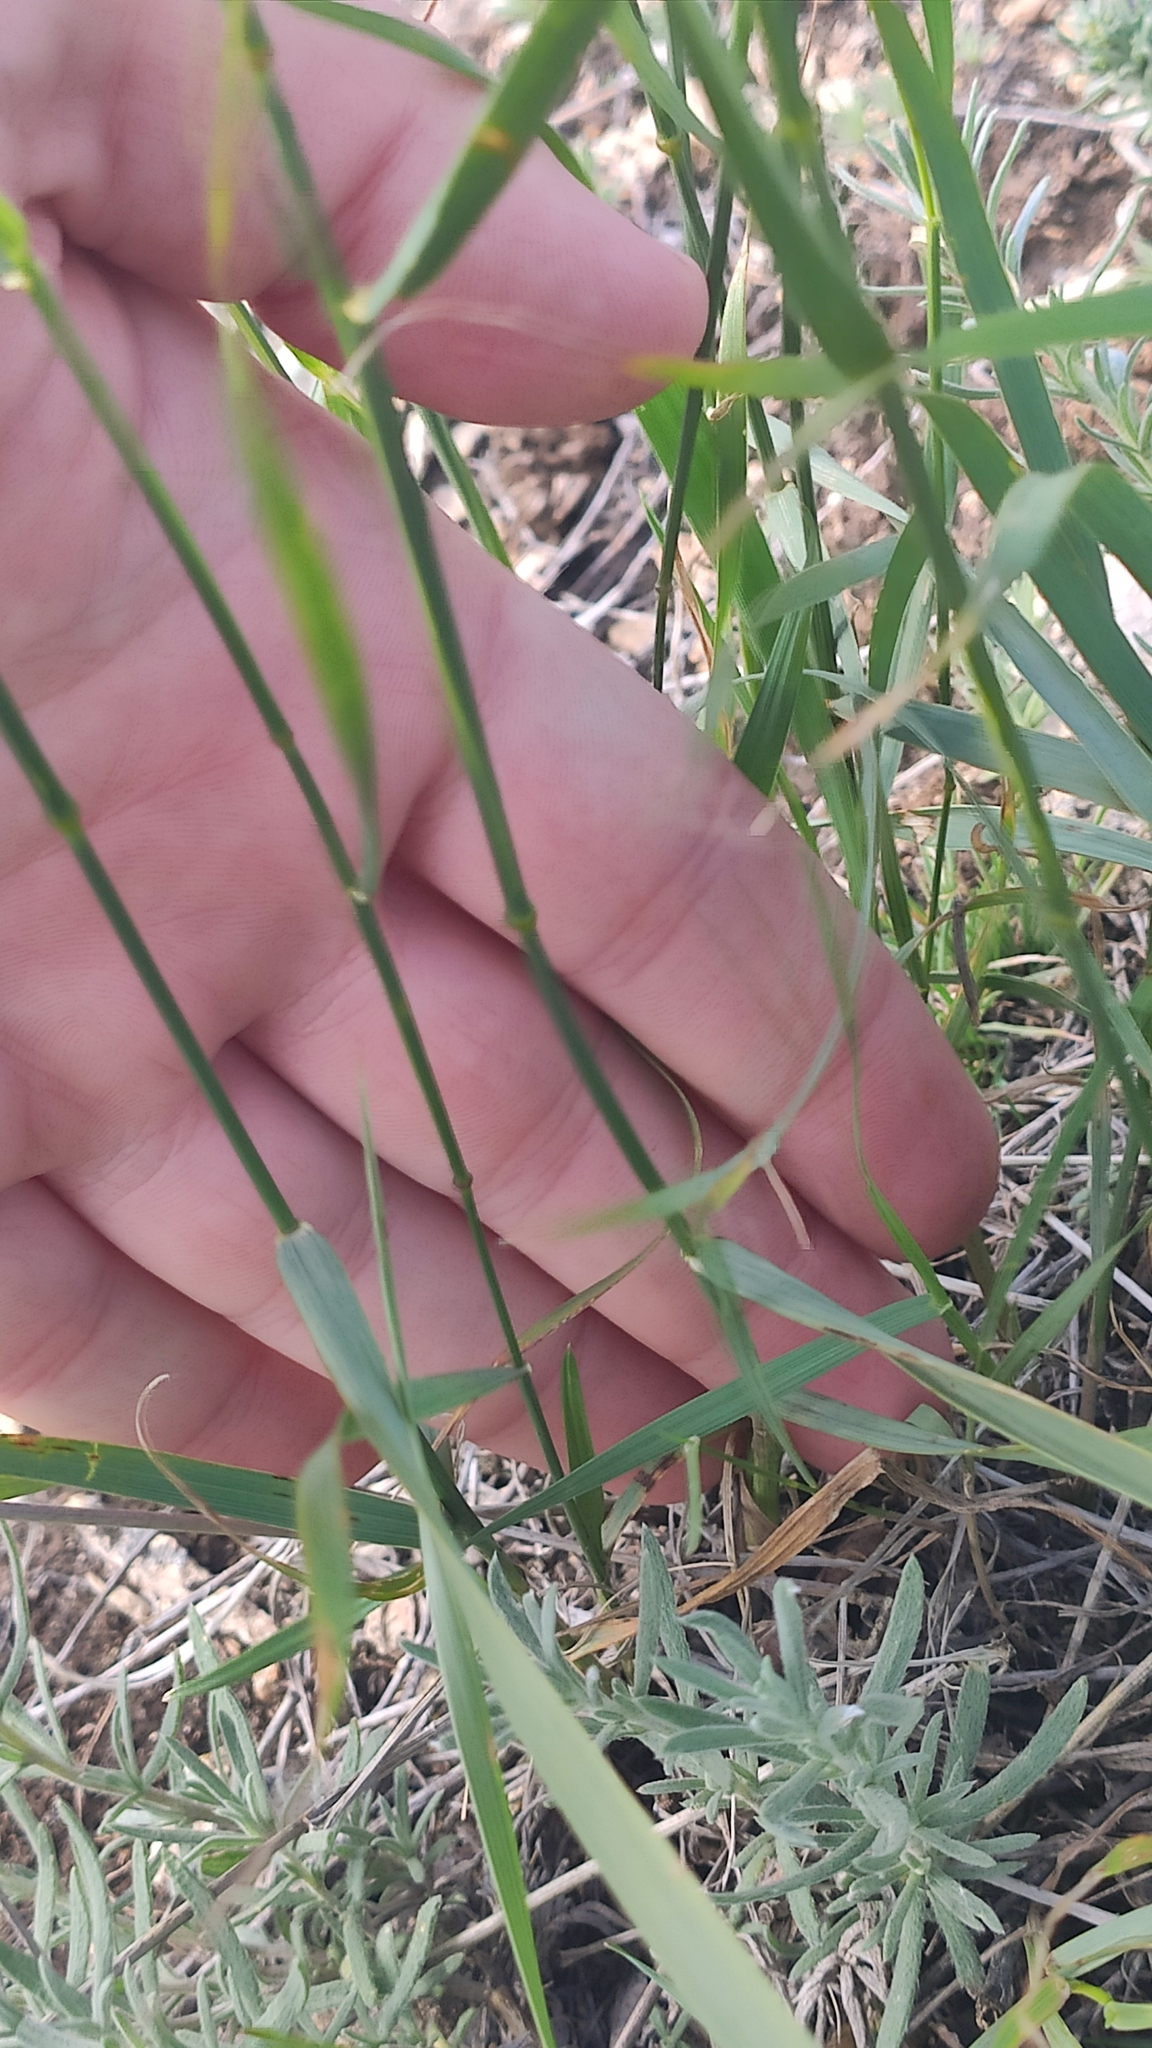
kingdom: Plantae
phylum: Tracheophyta
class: Liliopsida
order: Poales
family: Poaceae
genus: Agropyron
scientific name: Agropyron fragile
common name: Siberian wheatgrass
